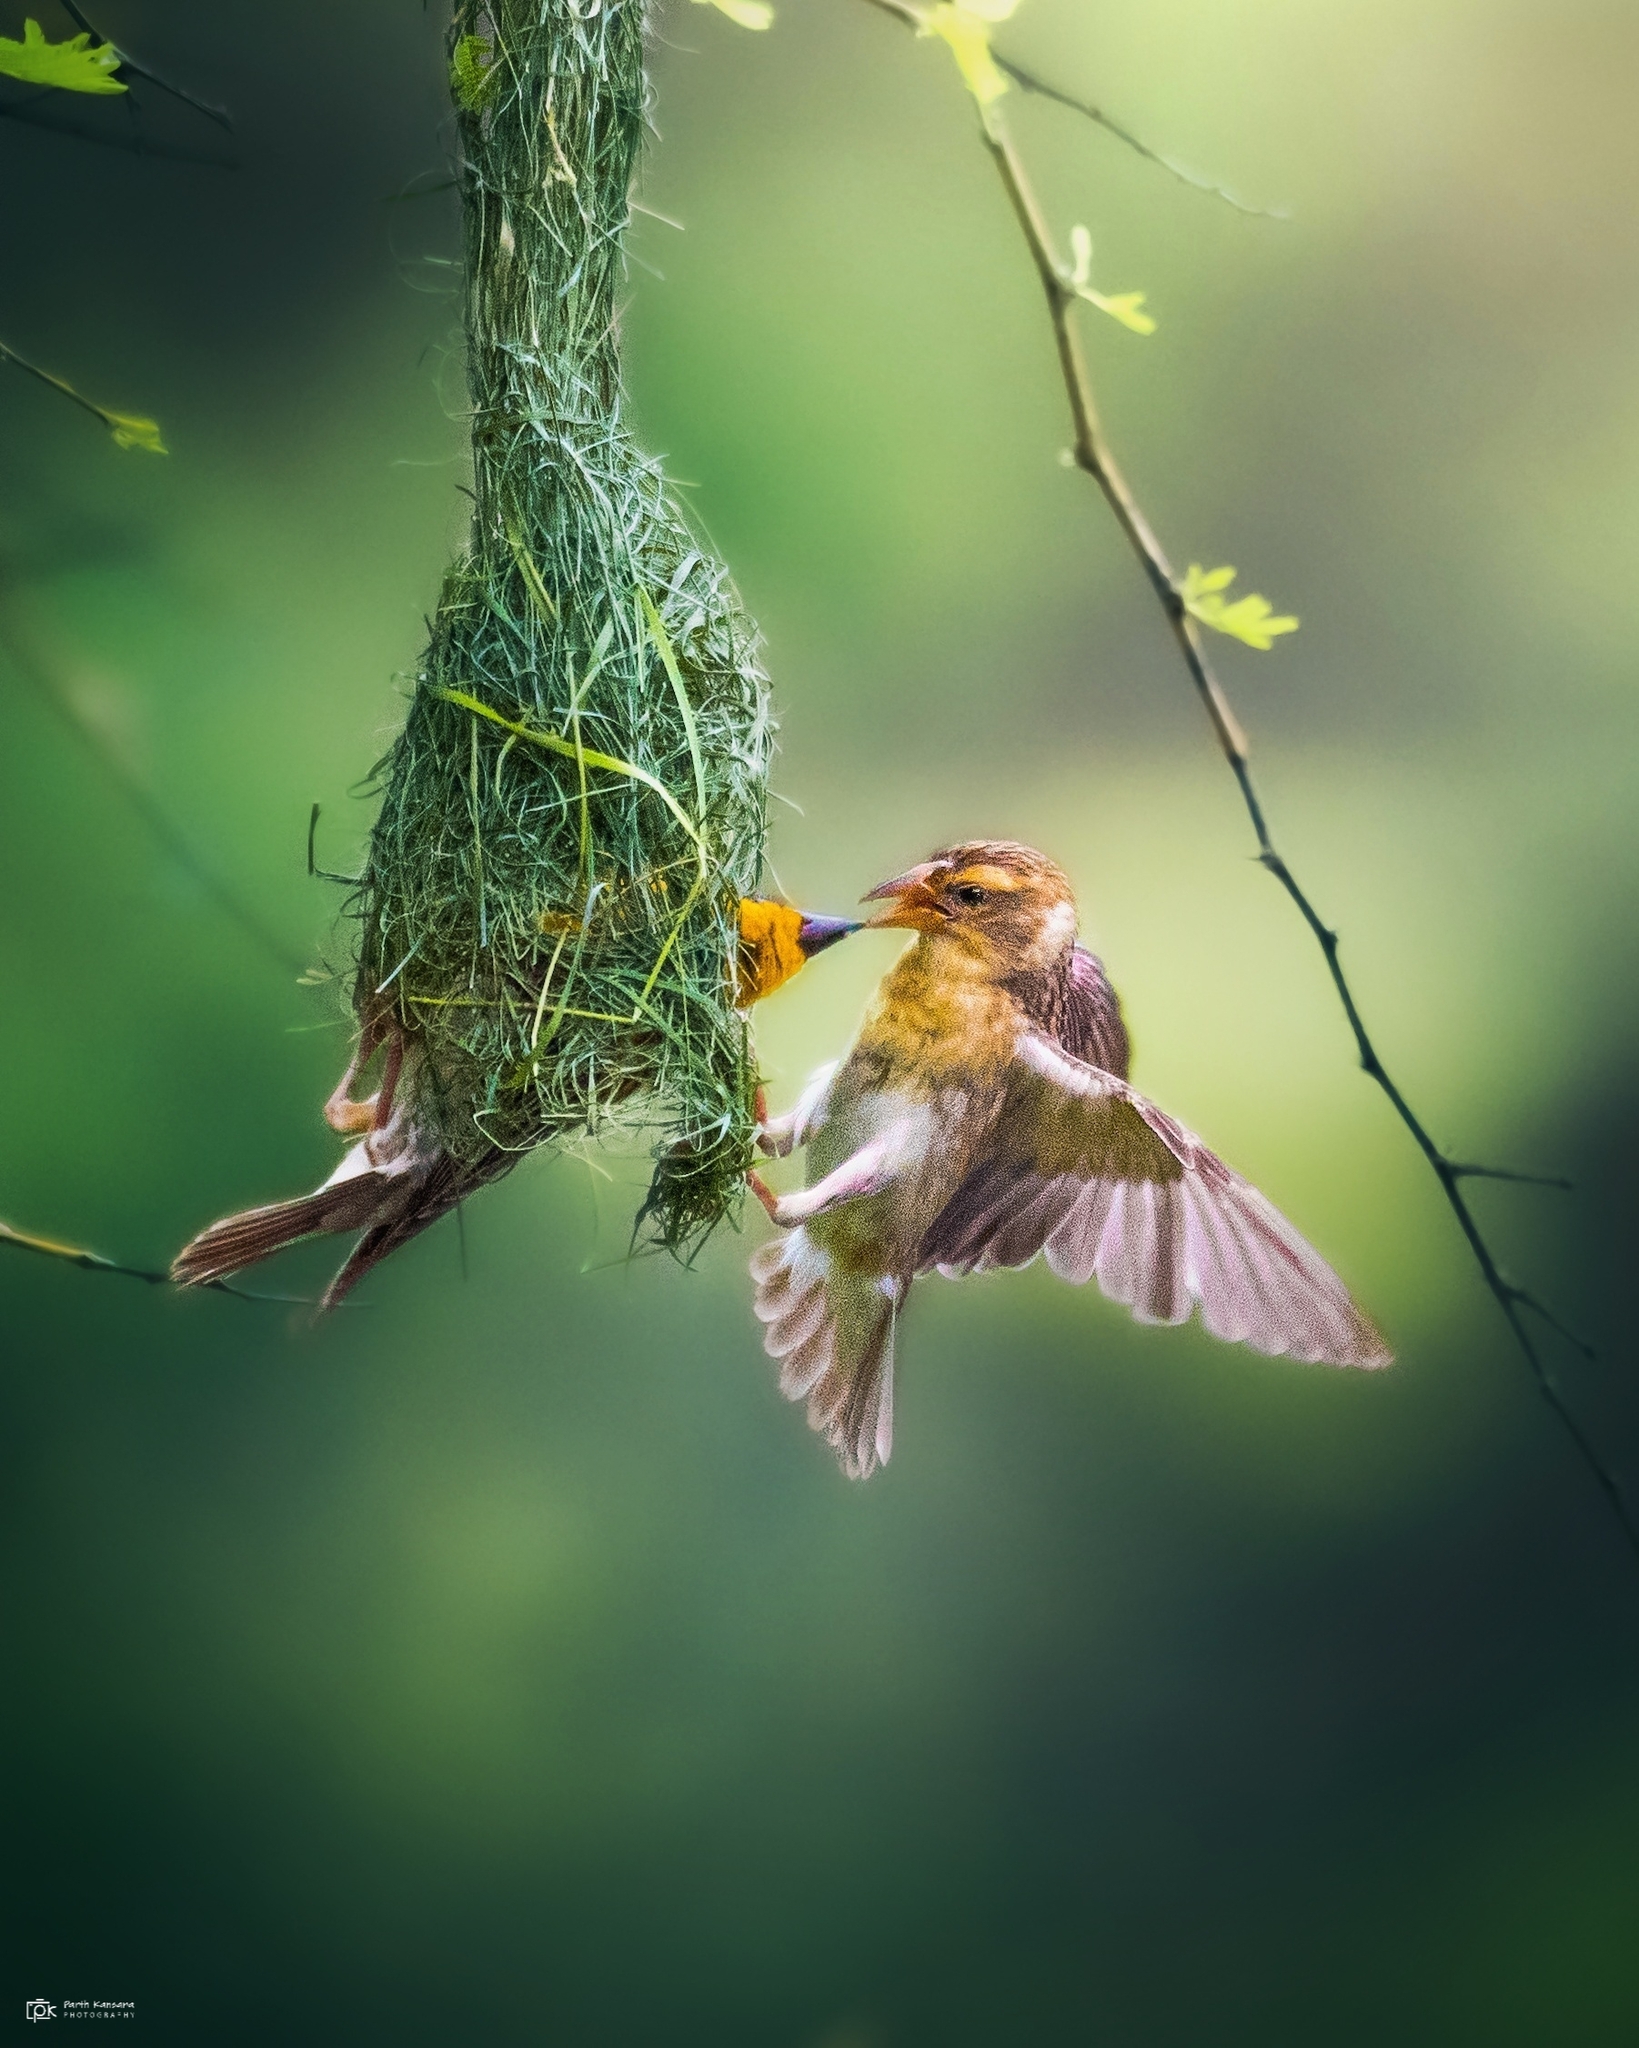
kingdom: Animalia
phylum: Chordata
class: Aves
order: Passeriformes
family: Ploceidae
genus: Ploceus
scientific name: Ploceus philippinus
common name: Baya weaver
